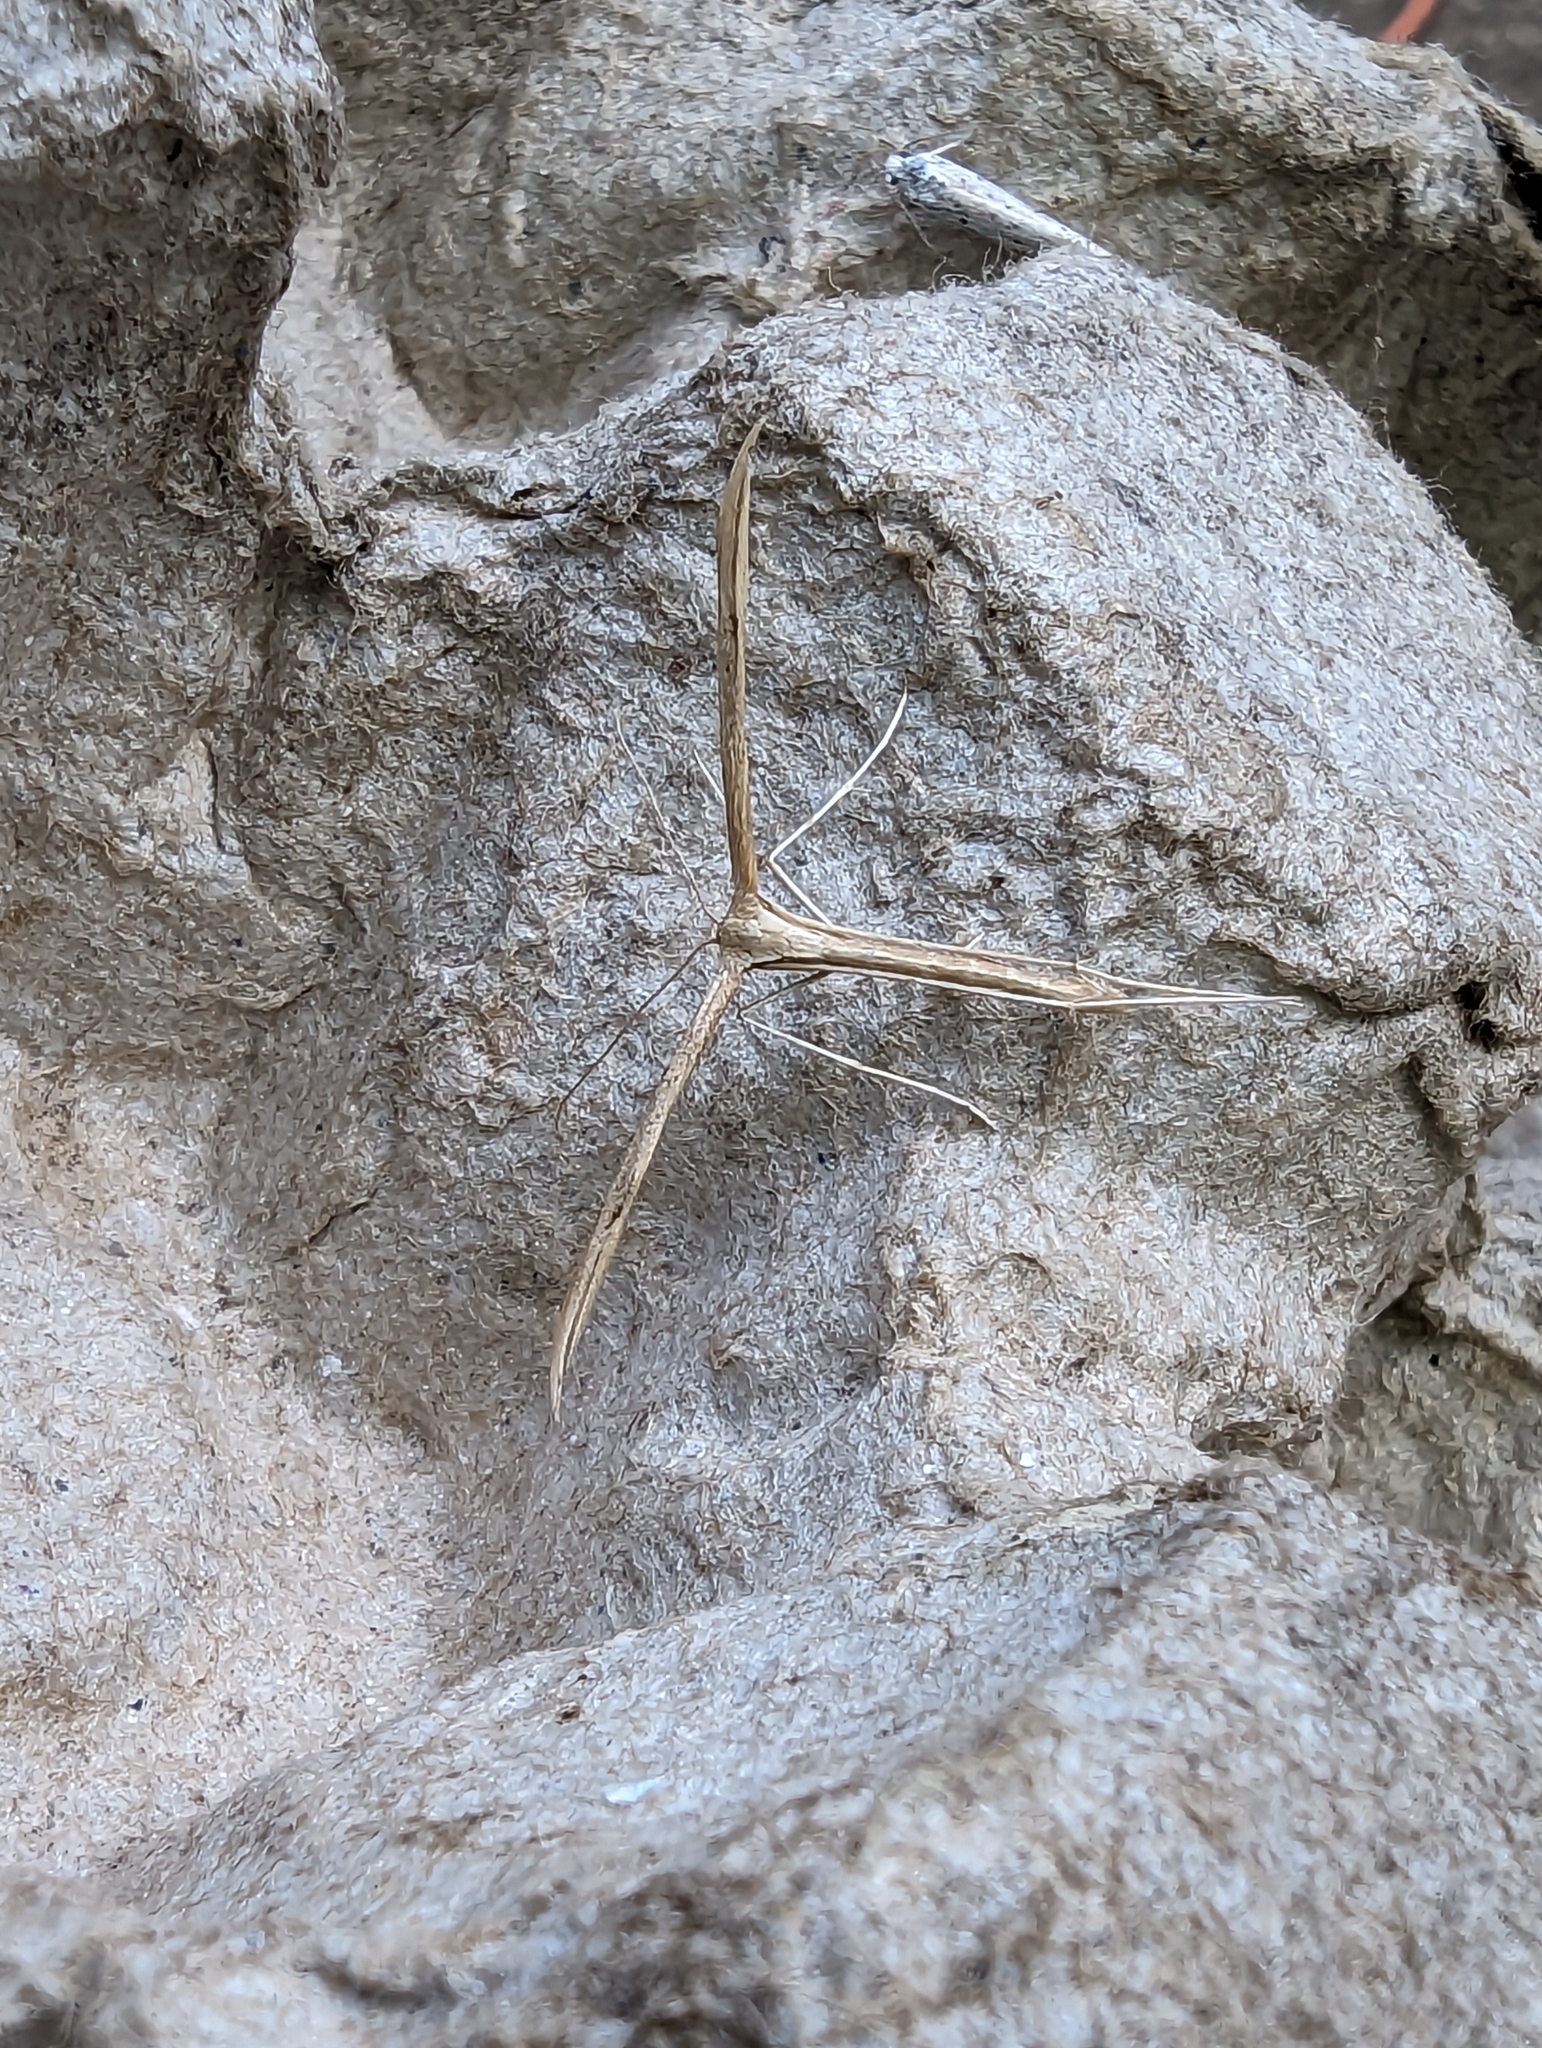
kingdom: Animalia
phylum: Arthropoda
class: Insecta
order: Lepidoptera
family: Pterophoridae
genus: Emmelina
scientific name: Emmelina monodactyla
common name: Common plume
